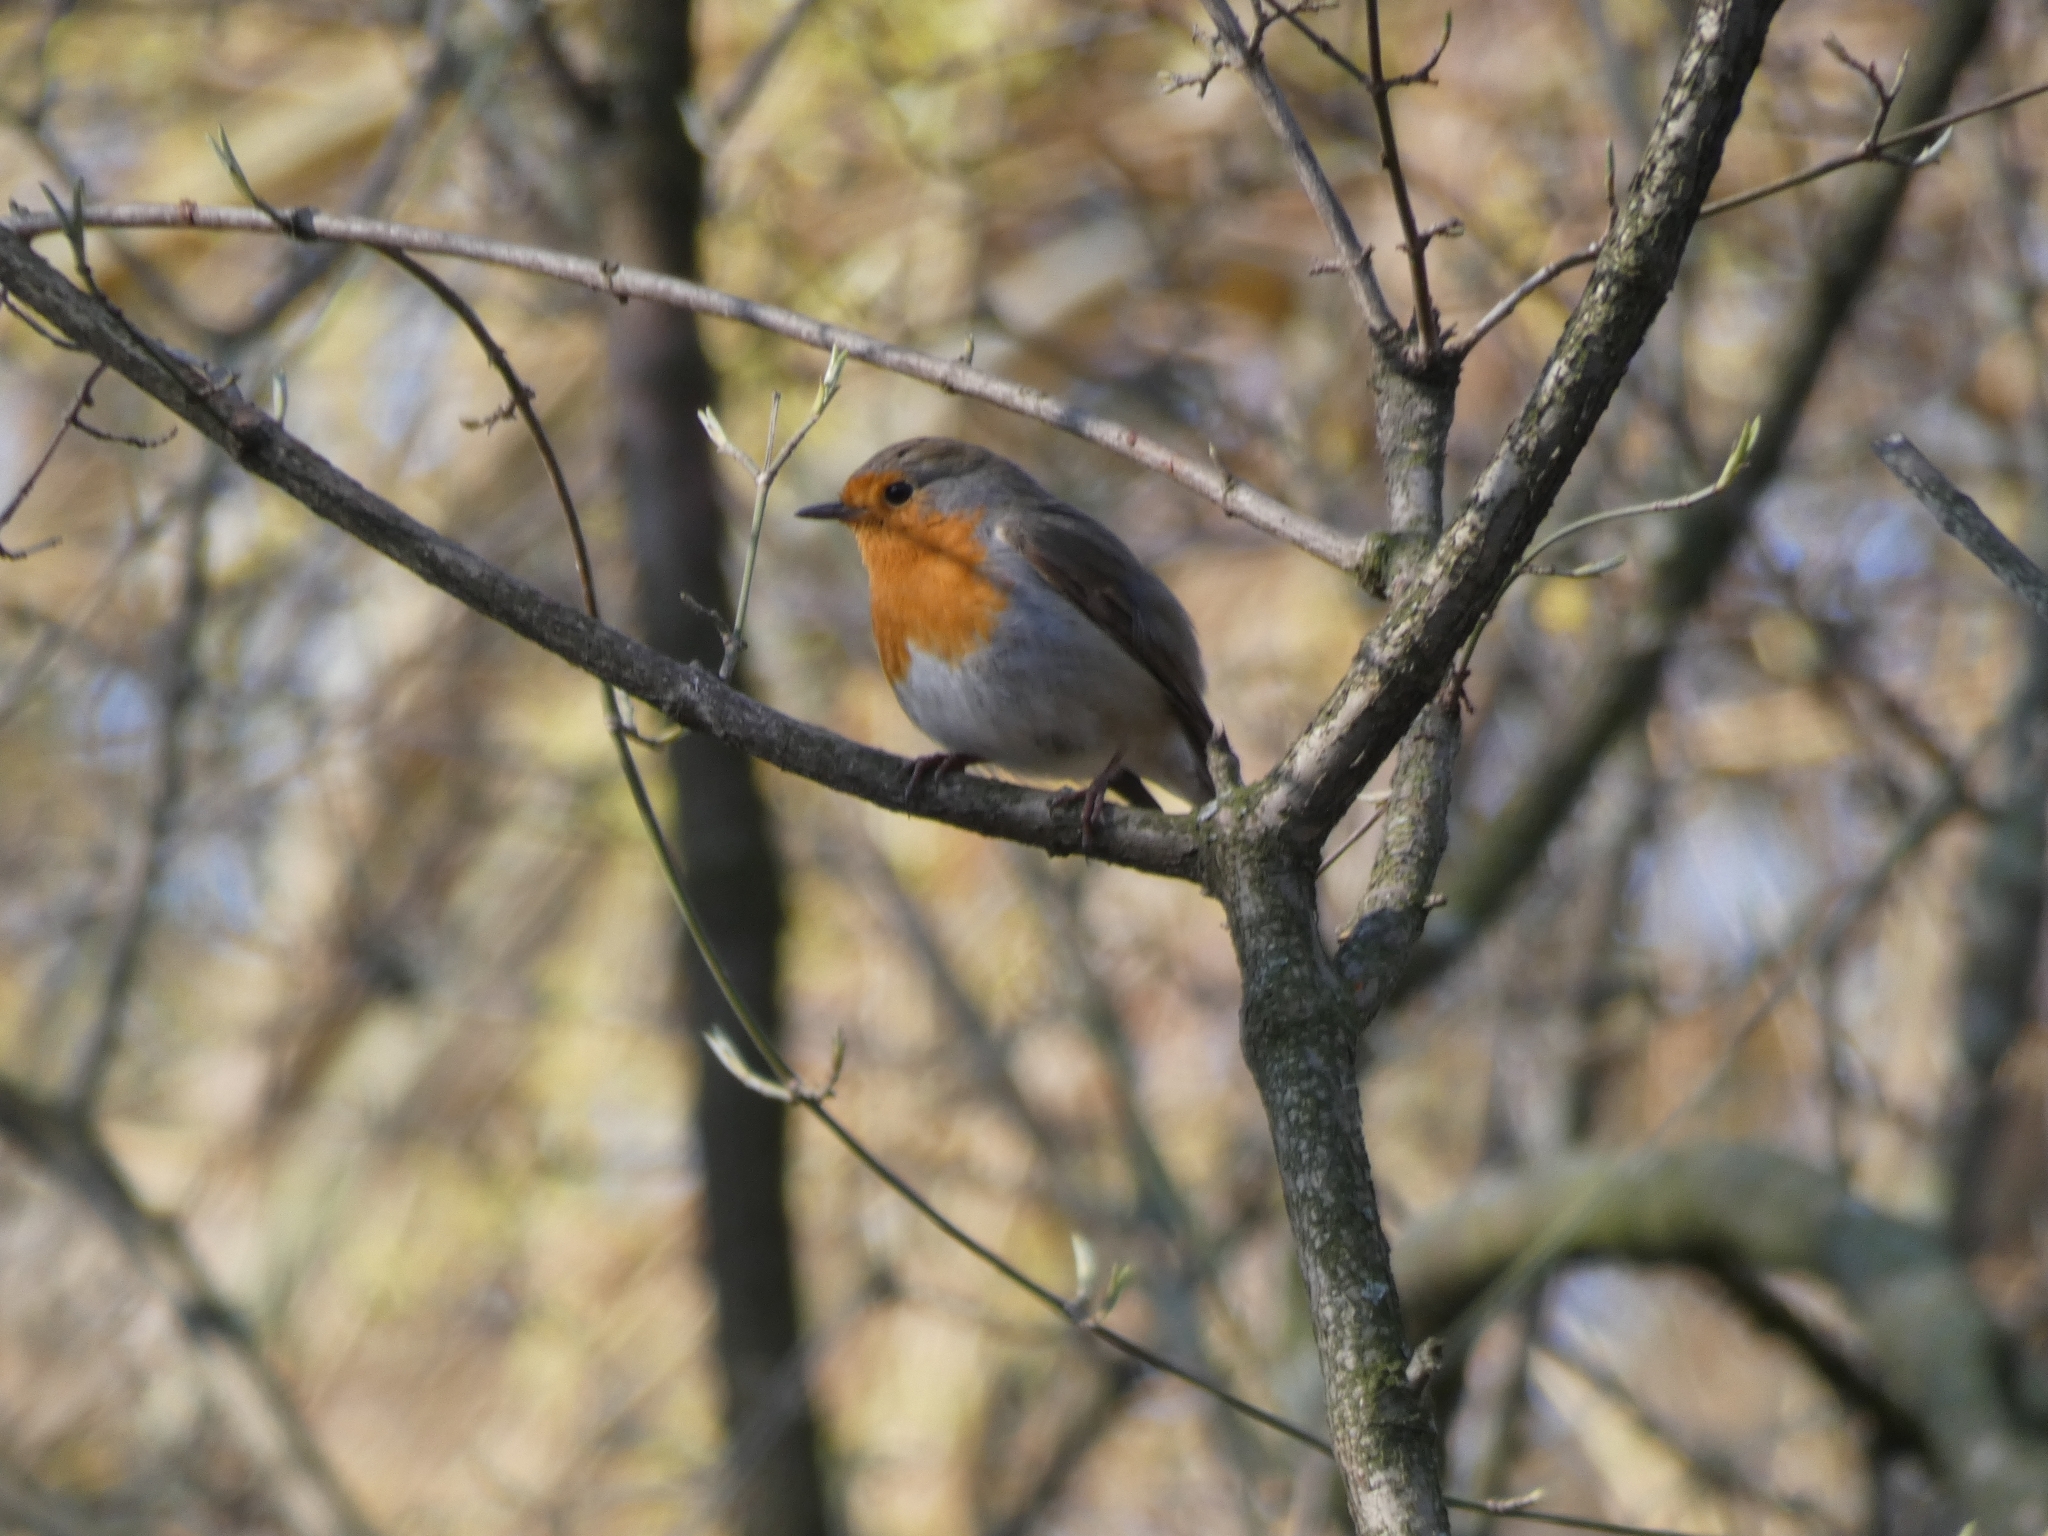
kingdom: Animalia
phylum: Chordata
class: Aves
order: Passeriformes
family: Muscicapidae
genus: Erithacus
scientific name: Erithacus rubecula
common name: European robin
